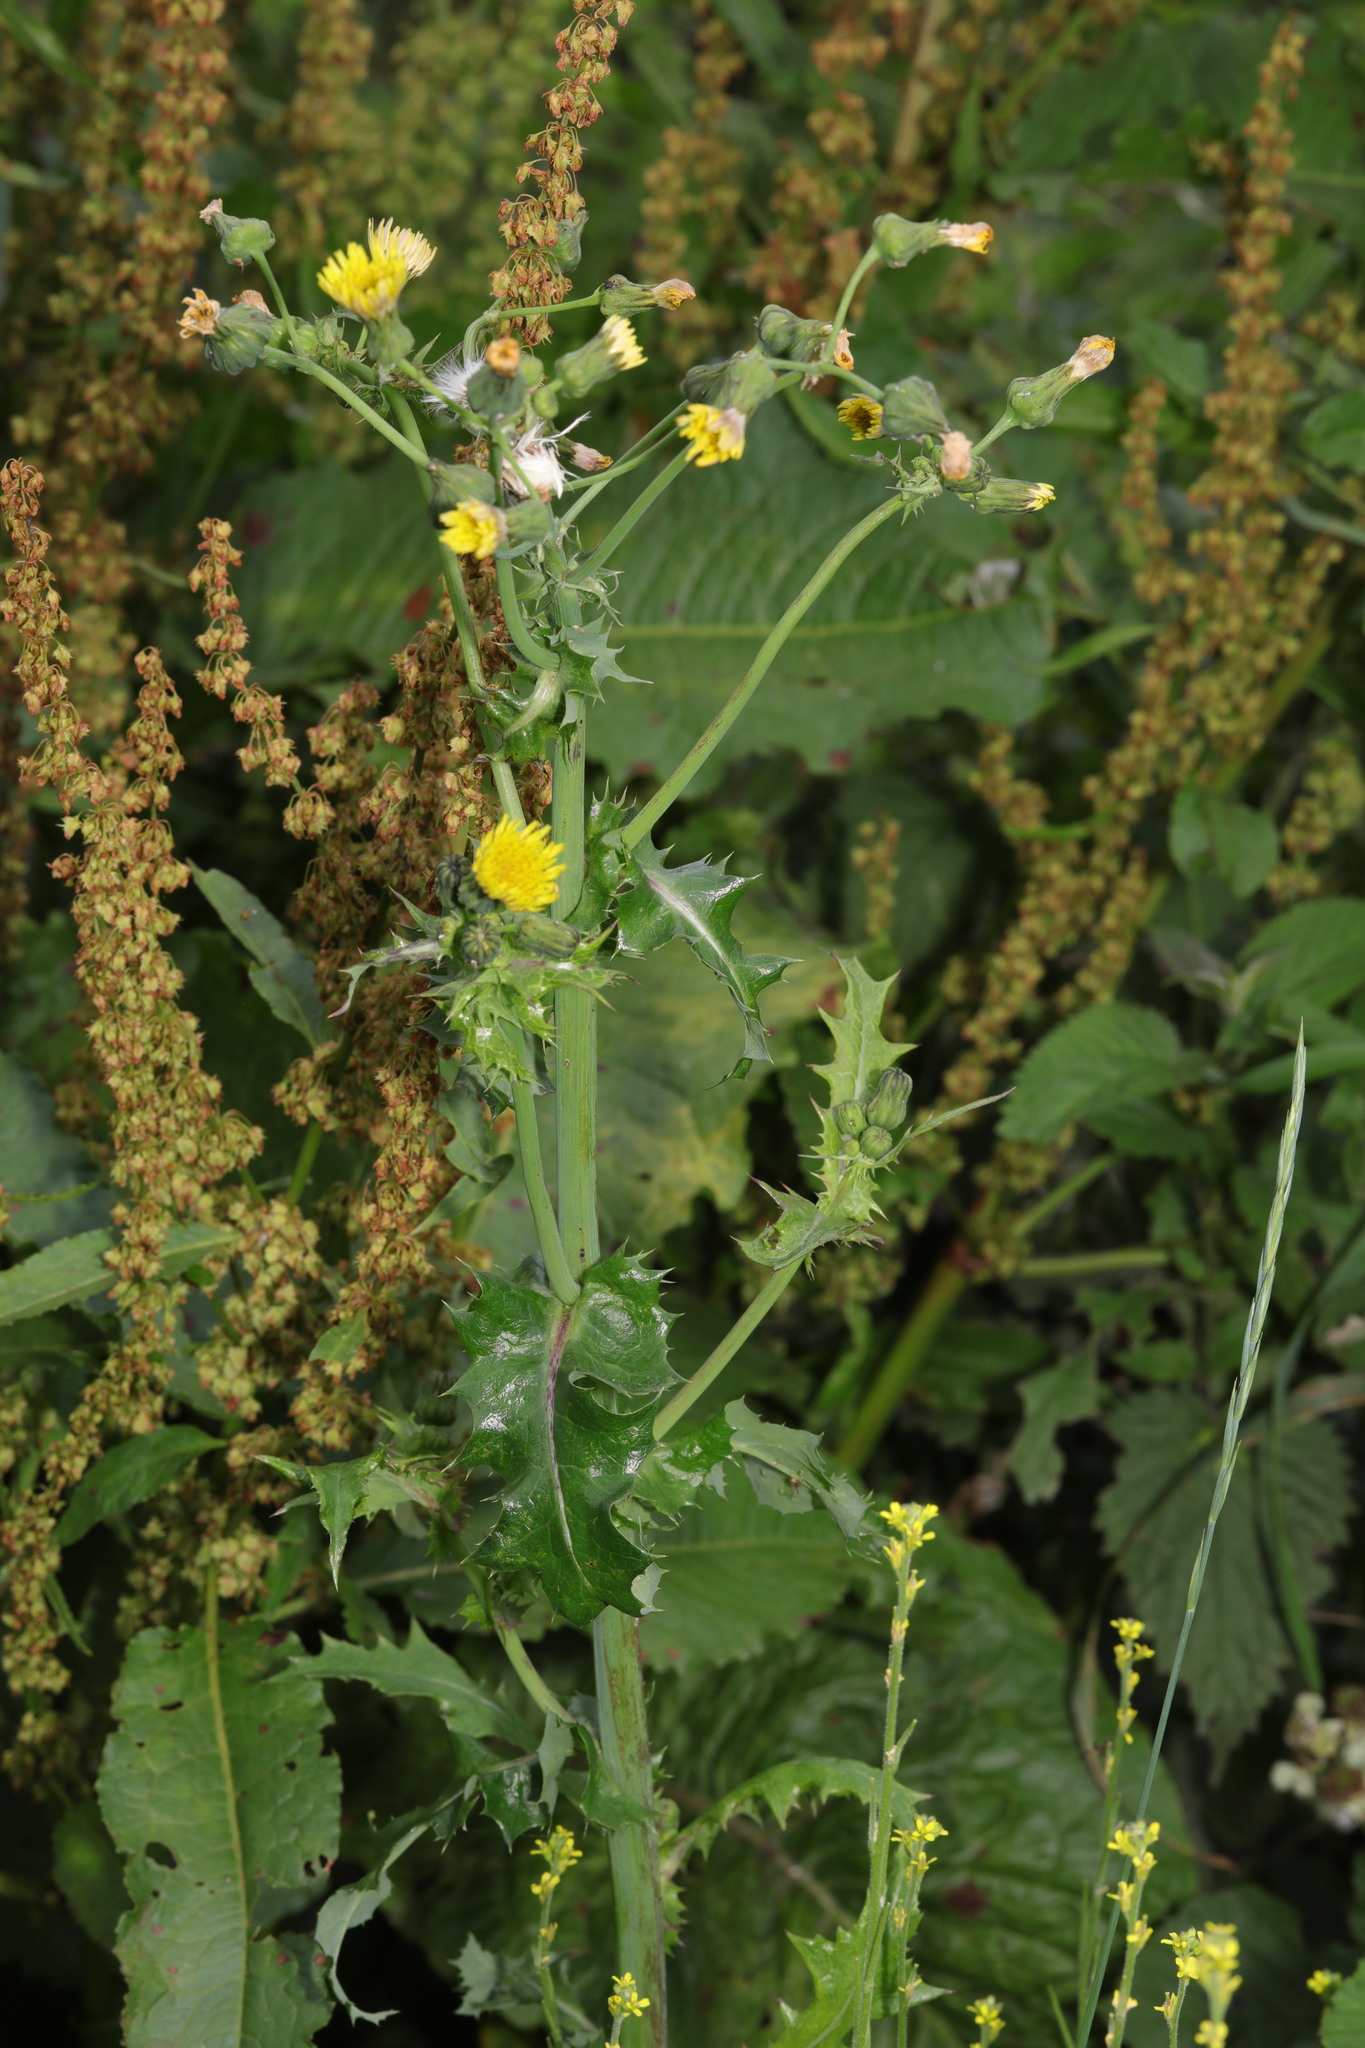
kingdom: Plantae
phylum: Tracheophyta
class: Magnoliopsida
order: Asterales
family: Asteraceae
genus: Sonchus
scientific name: Sonchus asper
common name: Prickly sow-thistle
